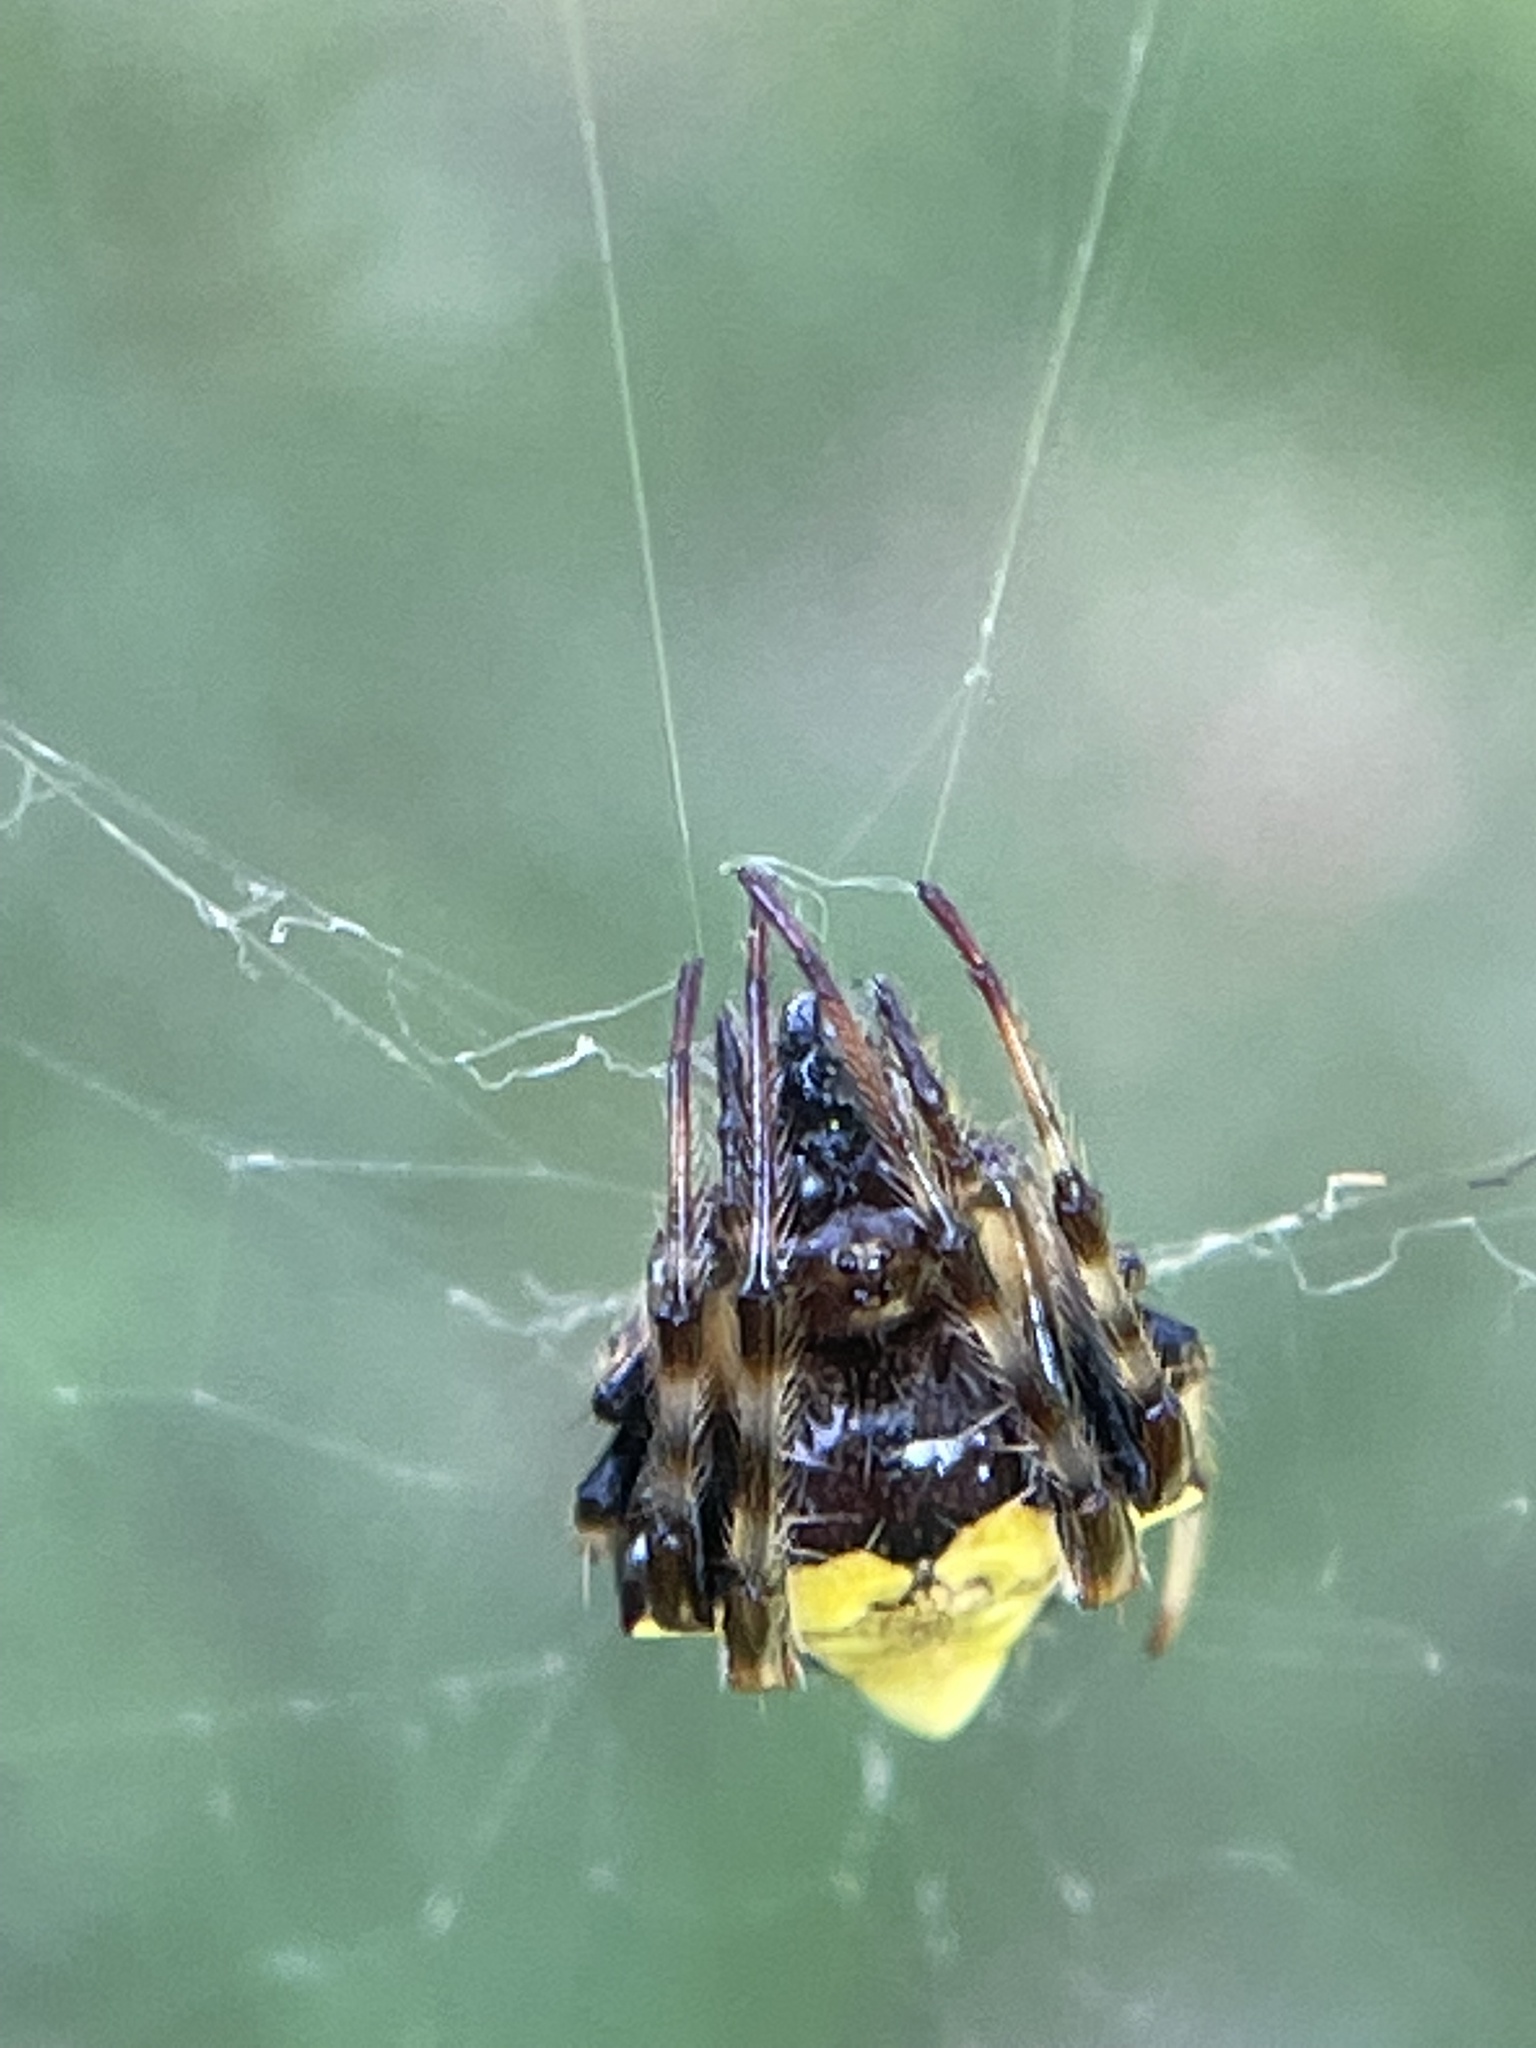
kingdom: Animalia
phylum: Arthropoda
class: Arachnida
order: Araneae
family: Araneidae
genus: Verrucosa
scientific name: Verrucosa arenata
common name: Orb weavers
